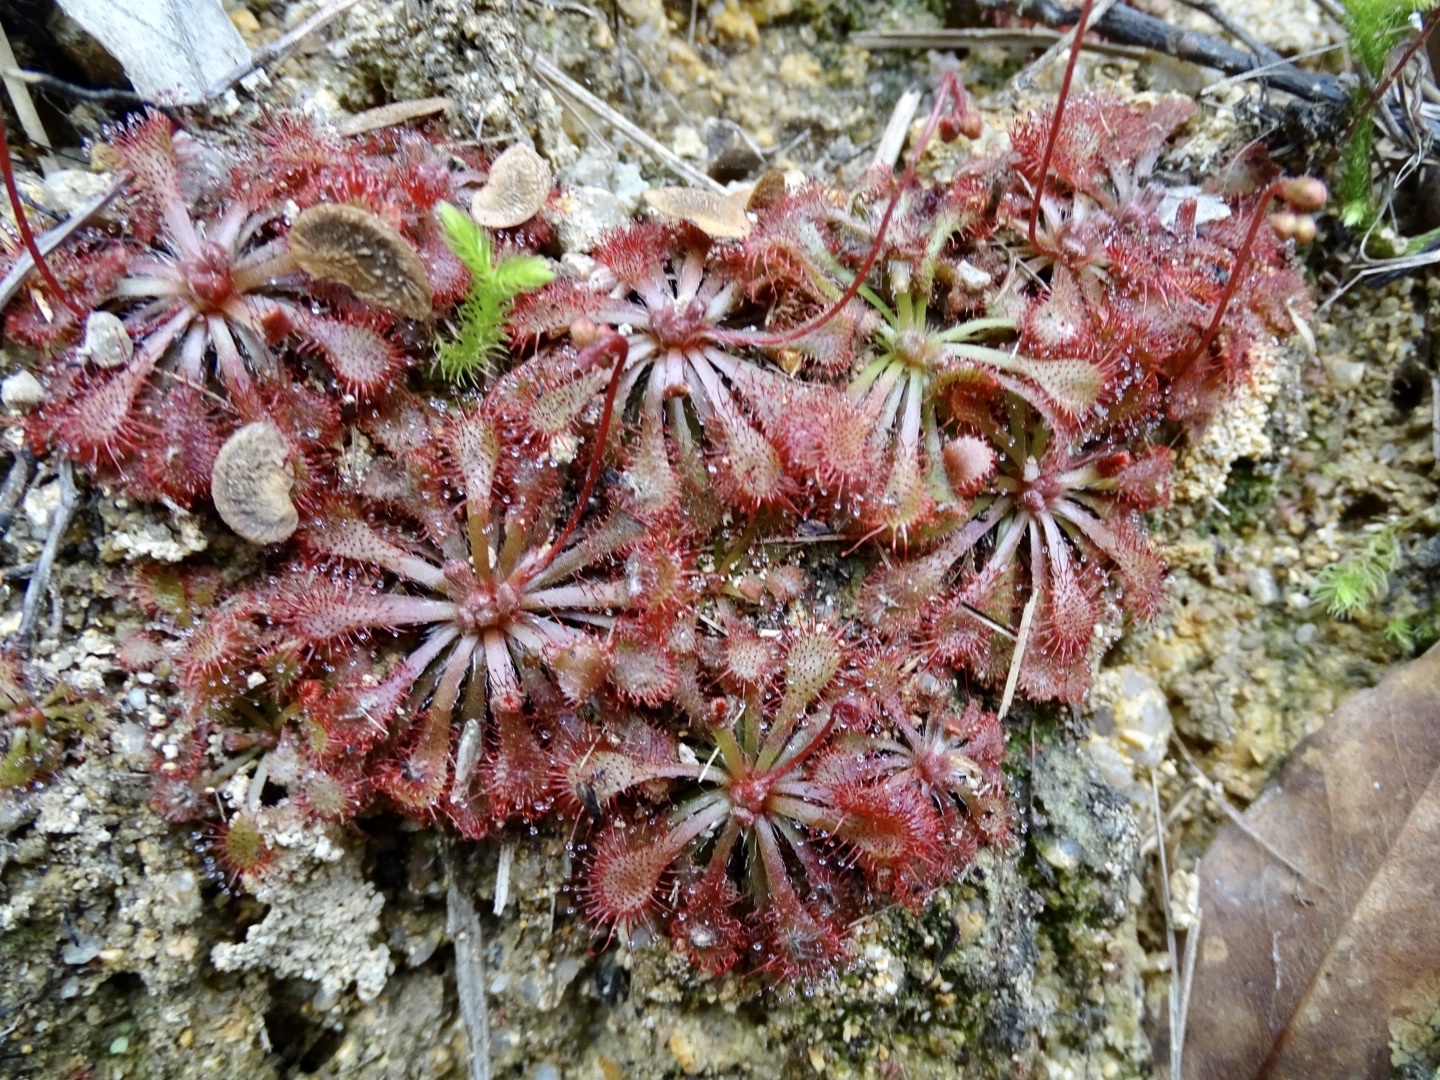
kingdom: Plantae
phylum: Tracheophyta
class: Magnoliopsida
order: Caryophyllales
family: Droseraceae
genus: Drosera
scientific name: Drosera spatulata
